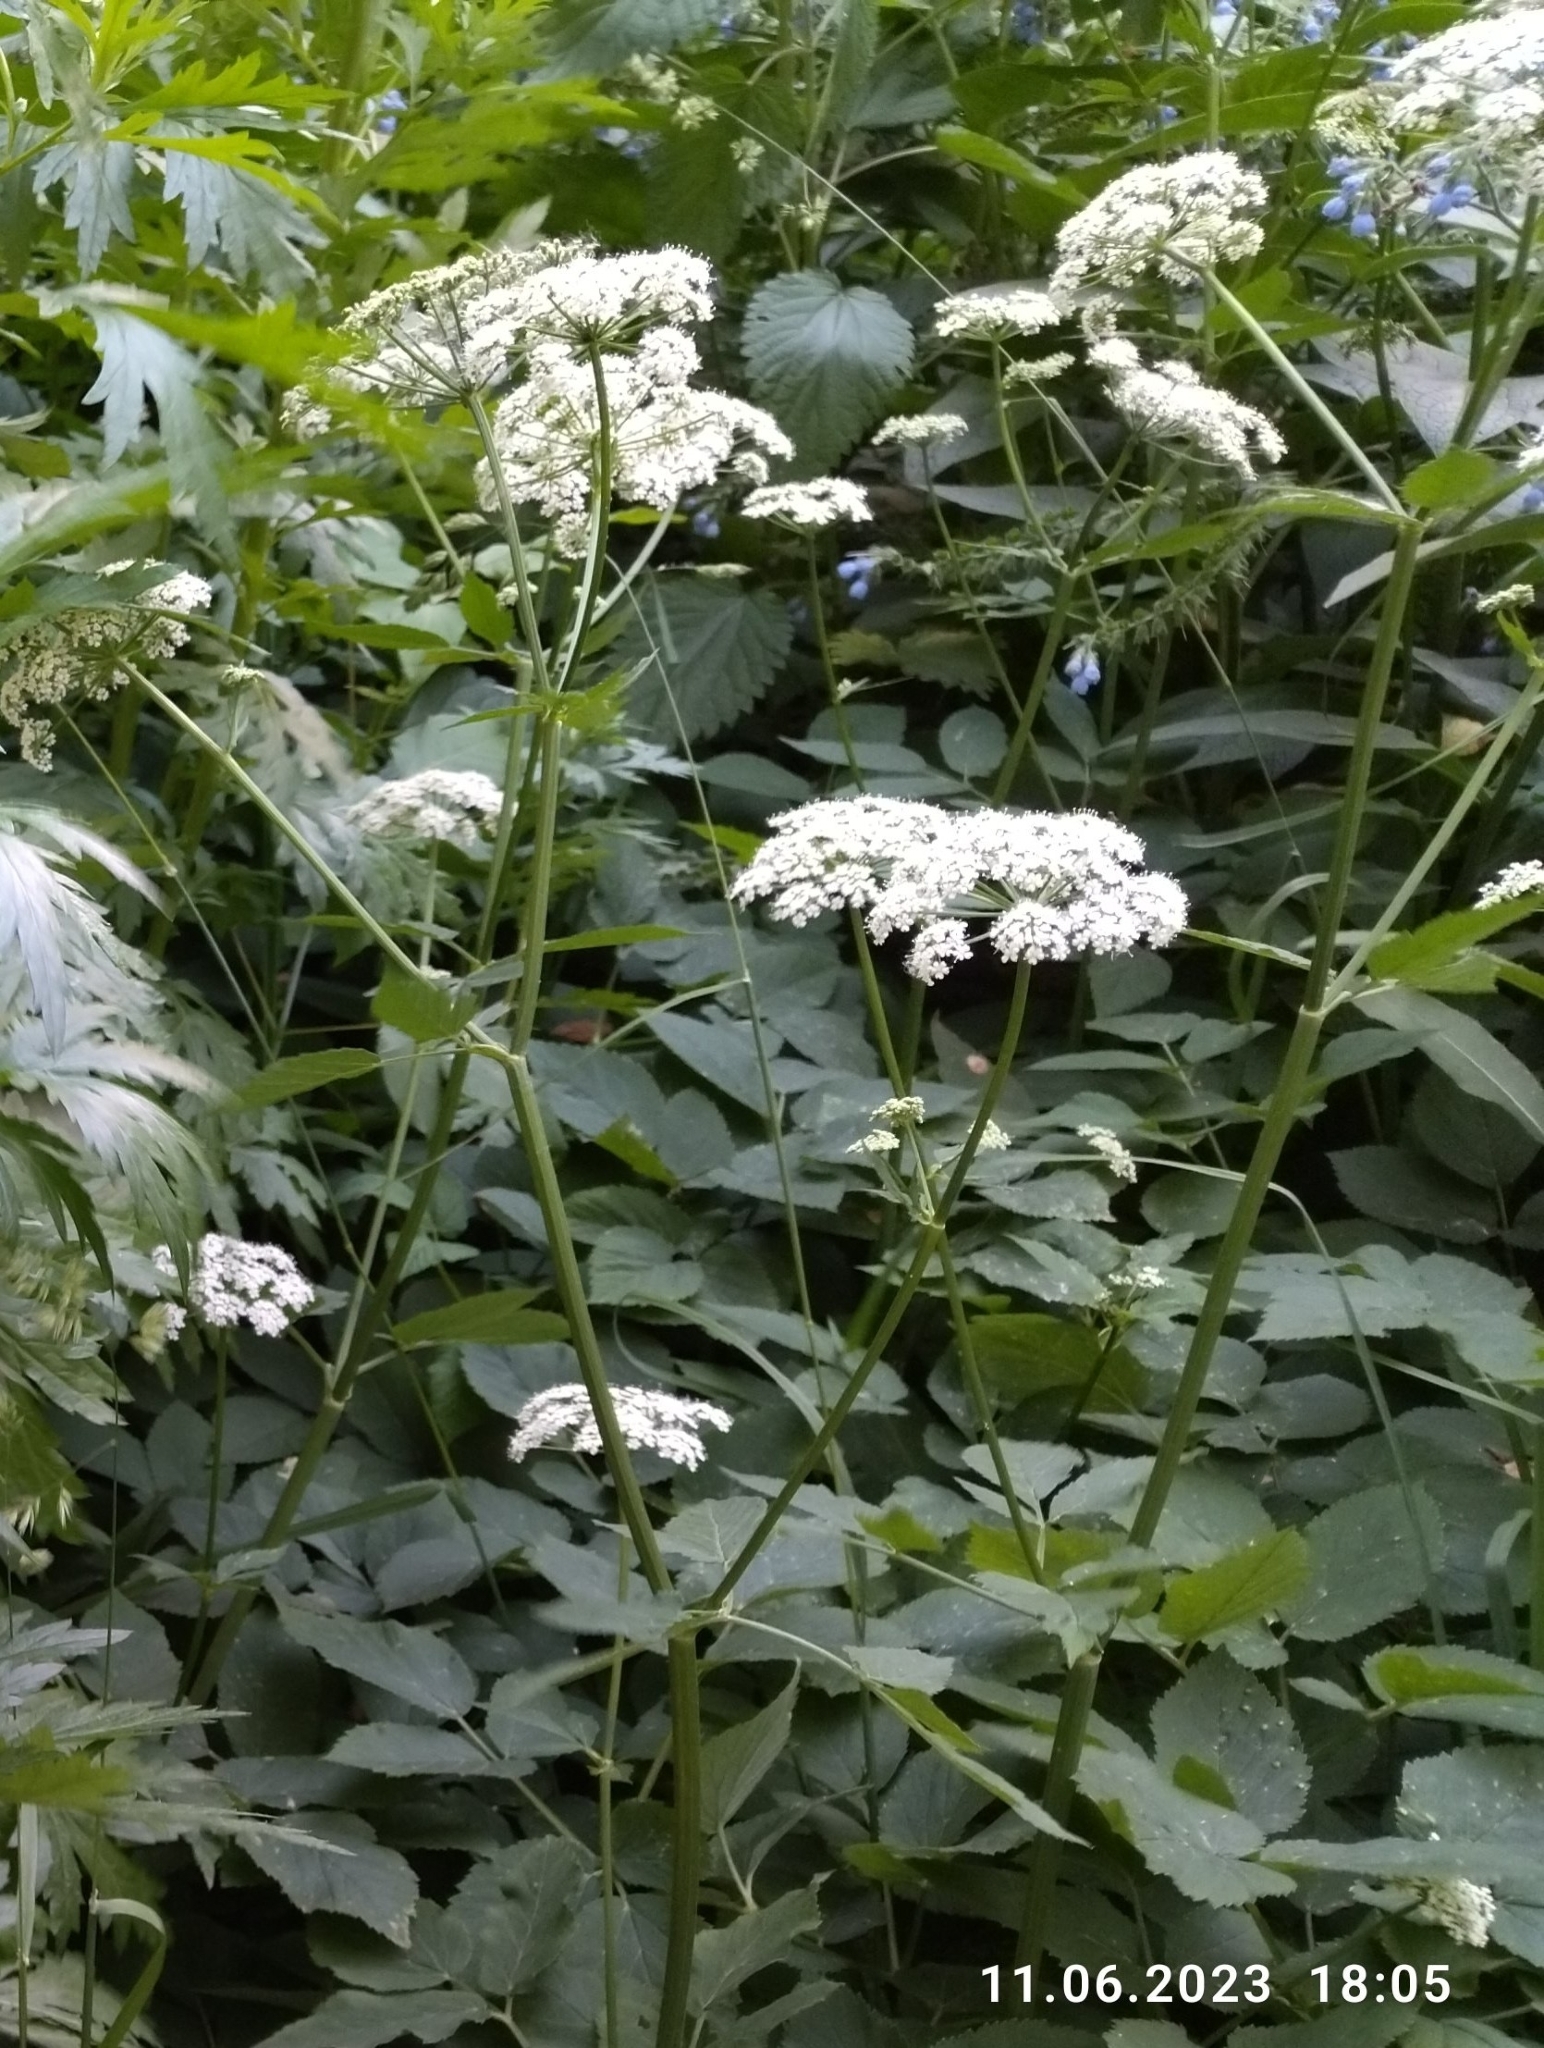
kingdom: Plantae
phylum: Tracheophyta
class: Magnoliopsida
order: Apiales
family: Apiaceae
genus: Aegopodium
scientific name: Aegopodium podagraria
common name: Ground-elder
